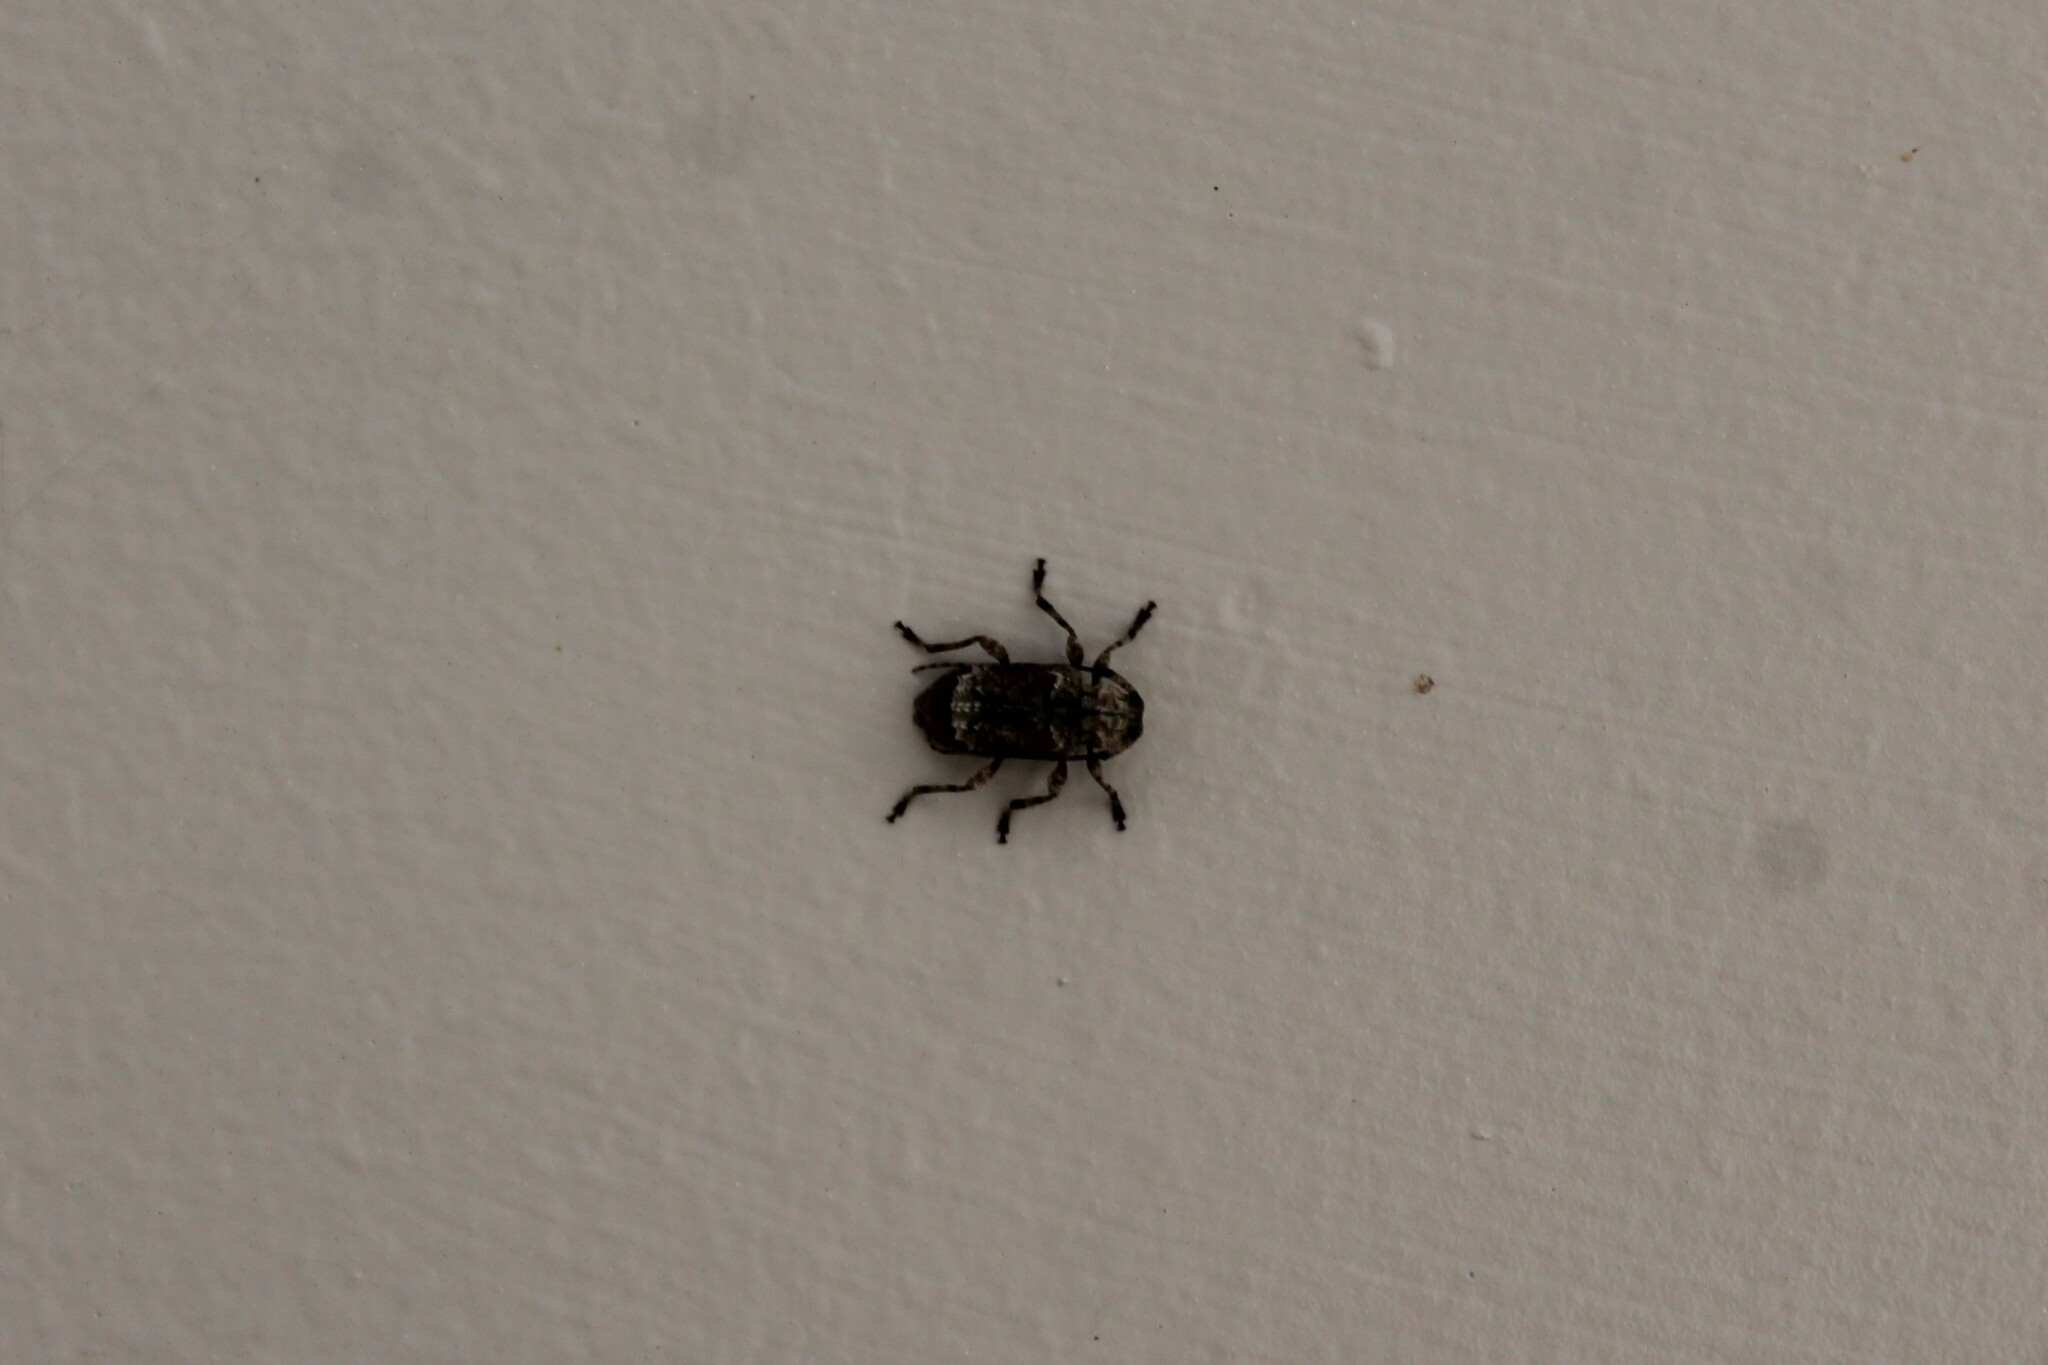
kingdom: Animalia
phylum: Arthropoda
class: Insecta
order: Coleoptera
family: Cerambycidae
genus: Leptostylus
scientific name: Leptostylus transversus
